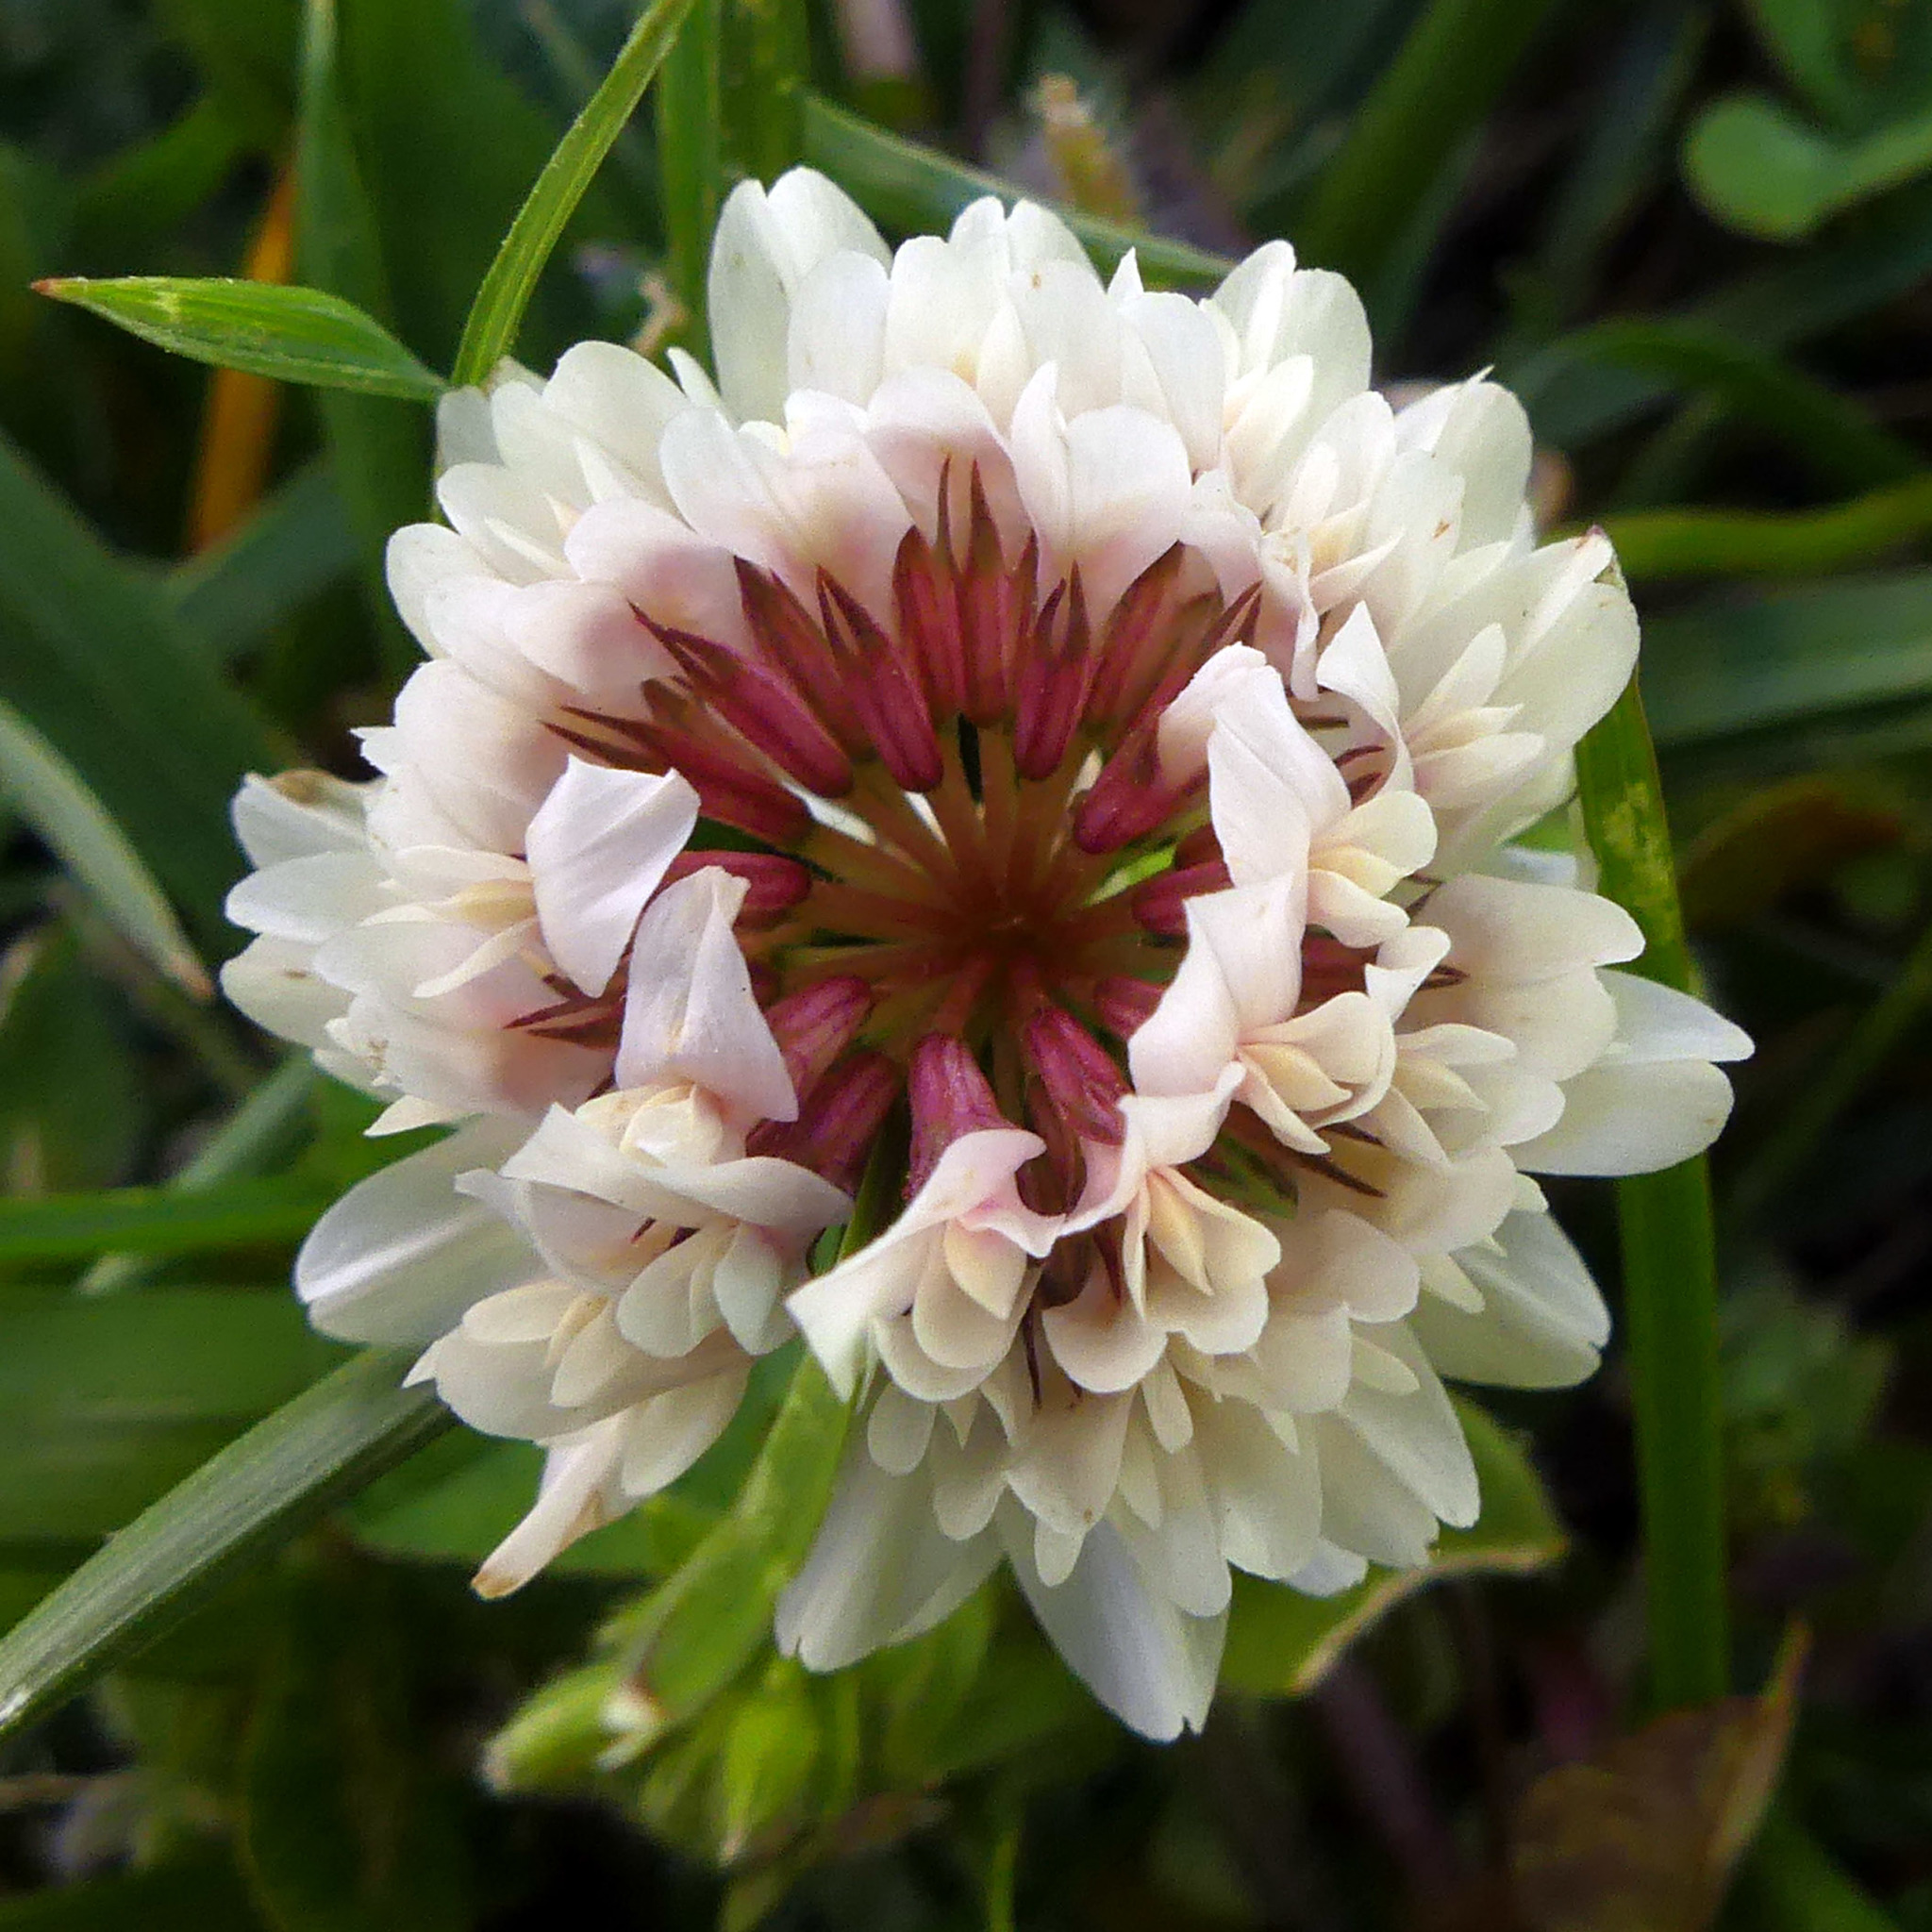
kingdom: Plantae
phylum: Tracheophyta
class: Magnoliopsida
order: Fabales
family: Fabaceae
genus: Trifolium
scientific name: Trifolium repens
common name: White clover
